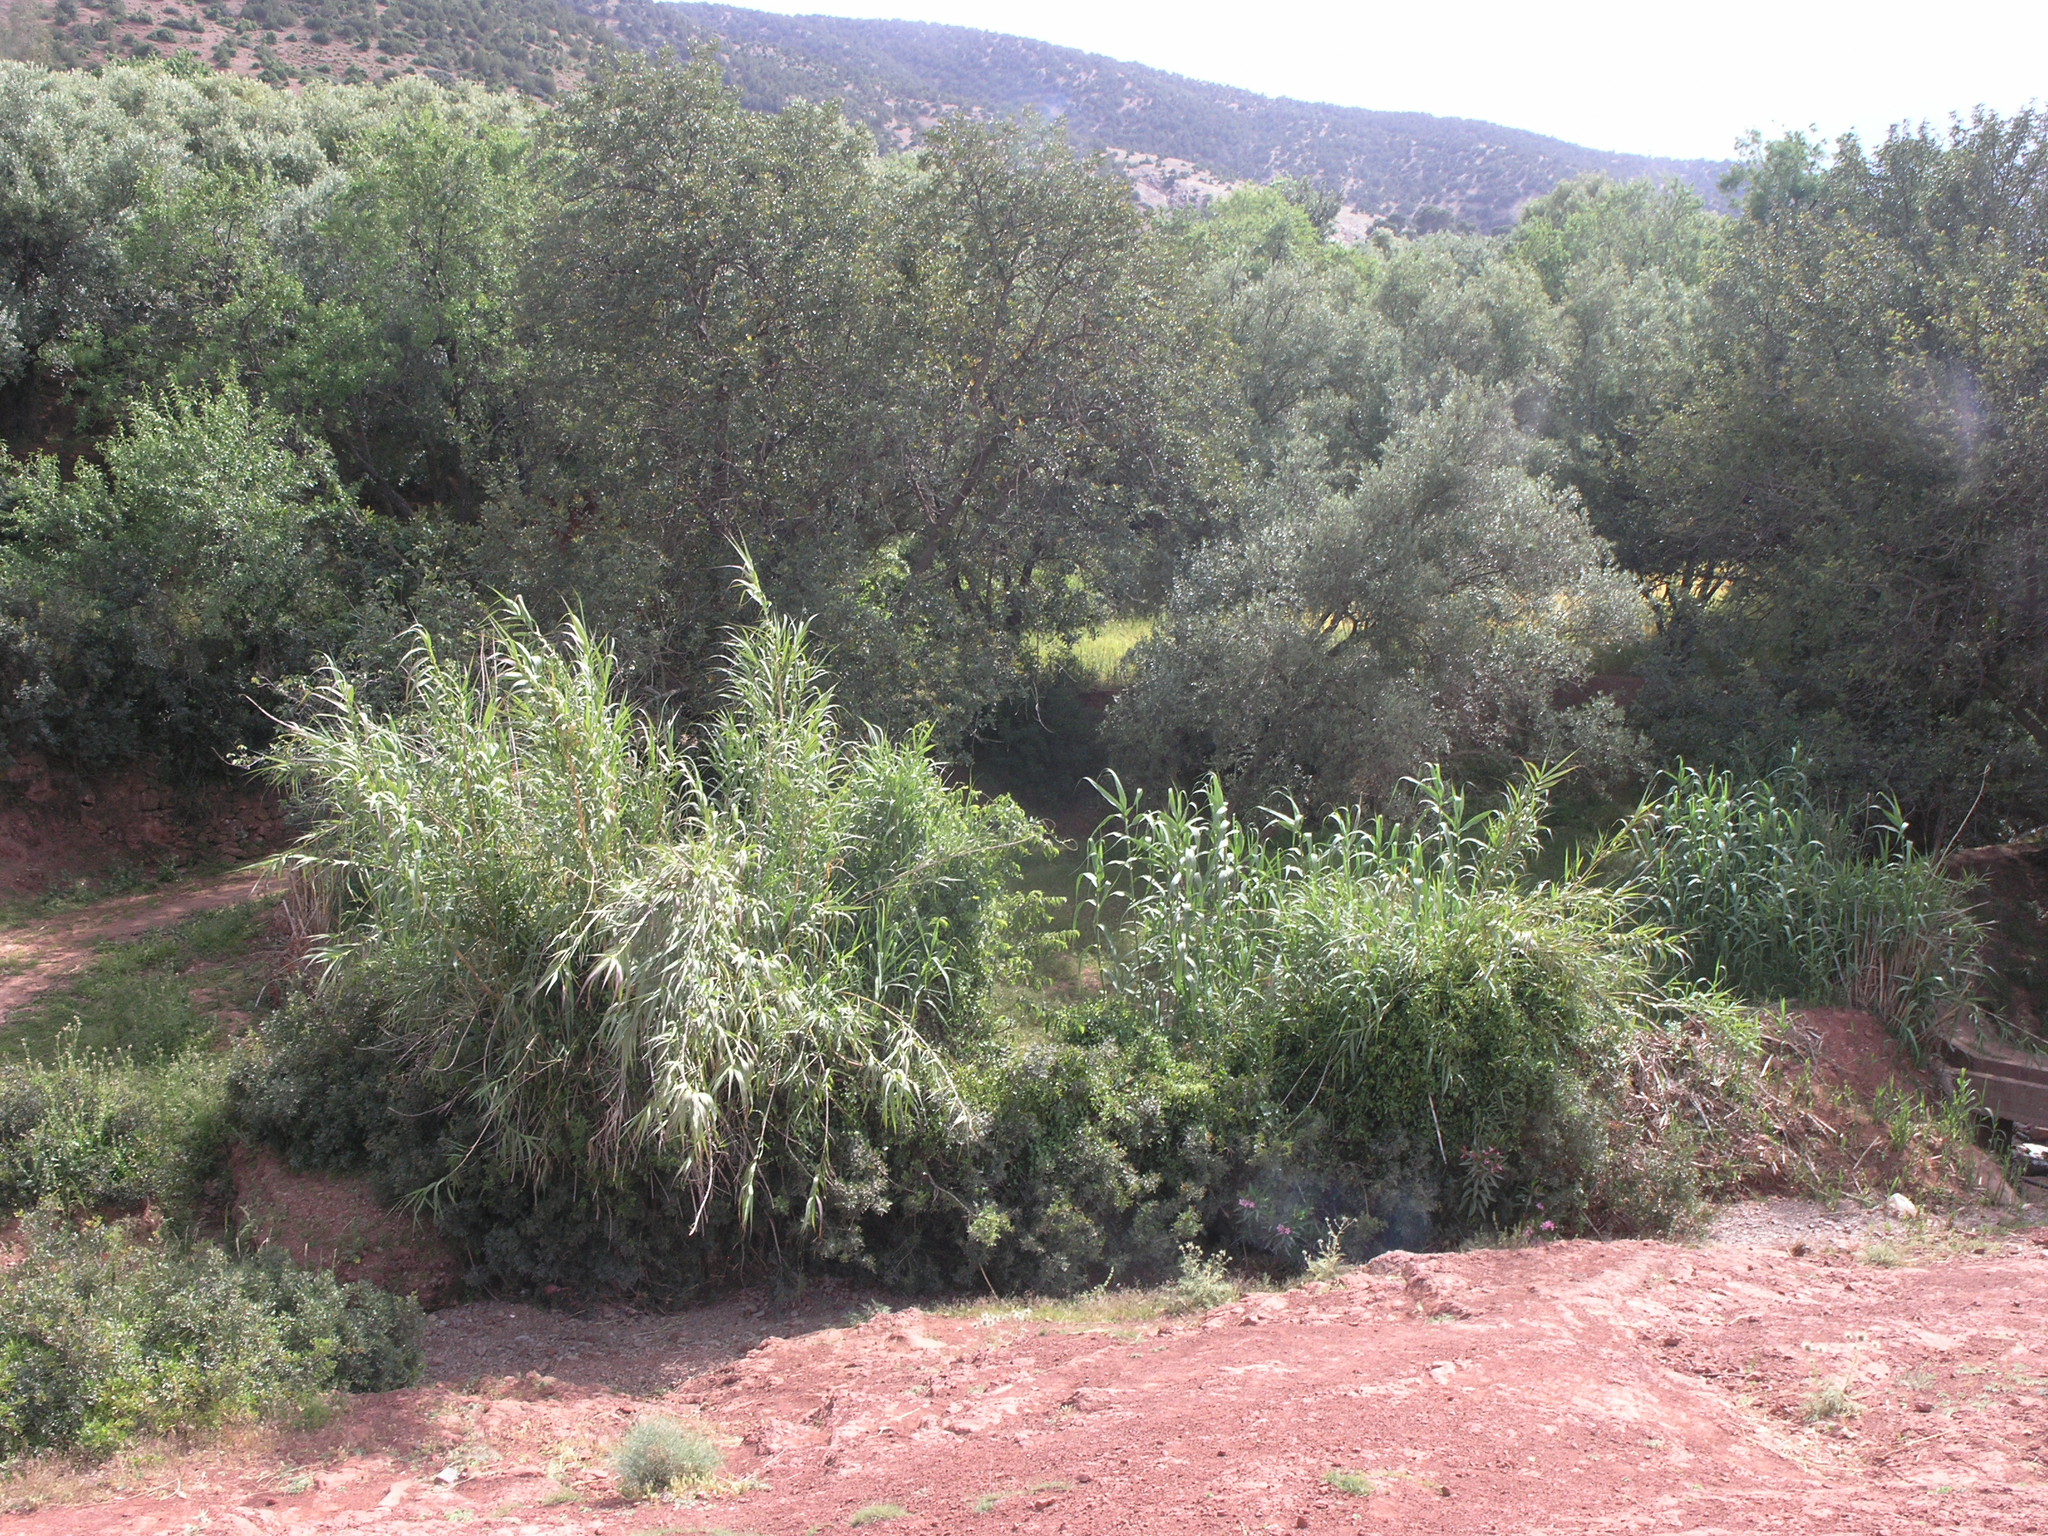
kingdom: Plantae
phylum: Tracheophyta
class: Liliopsida
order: Poales
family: Poaceae
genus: Arundo
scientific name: Arundo donax
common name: Giant reed
